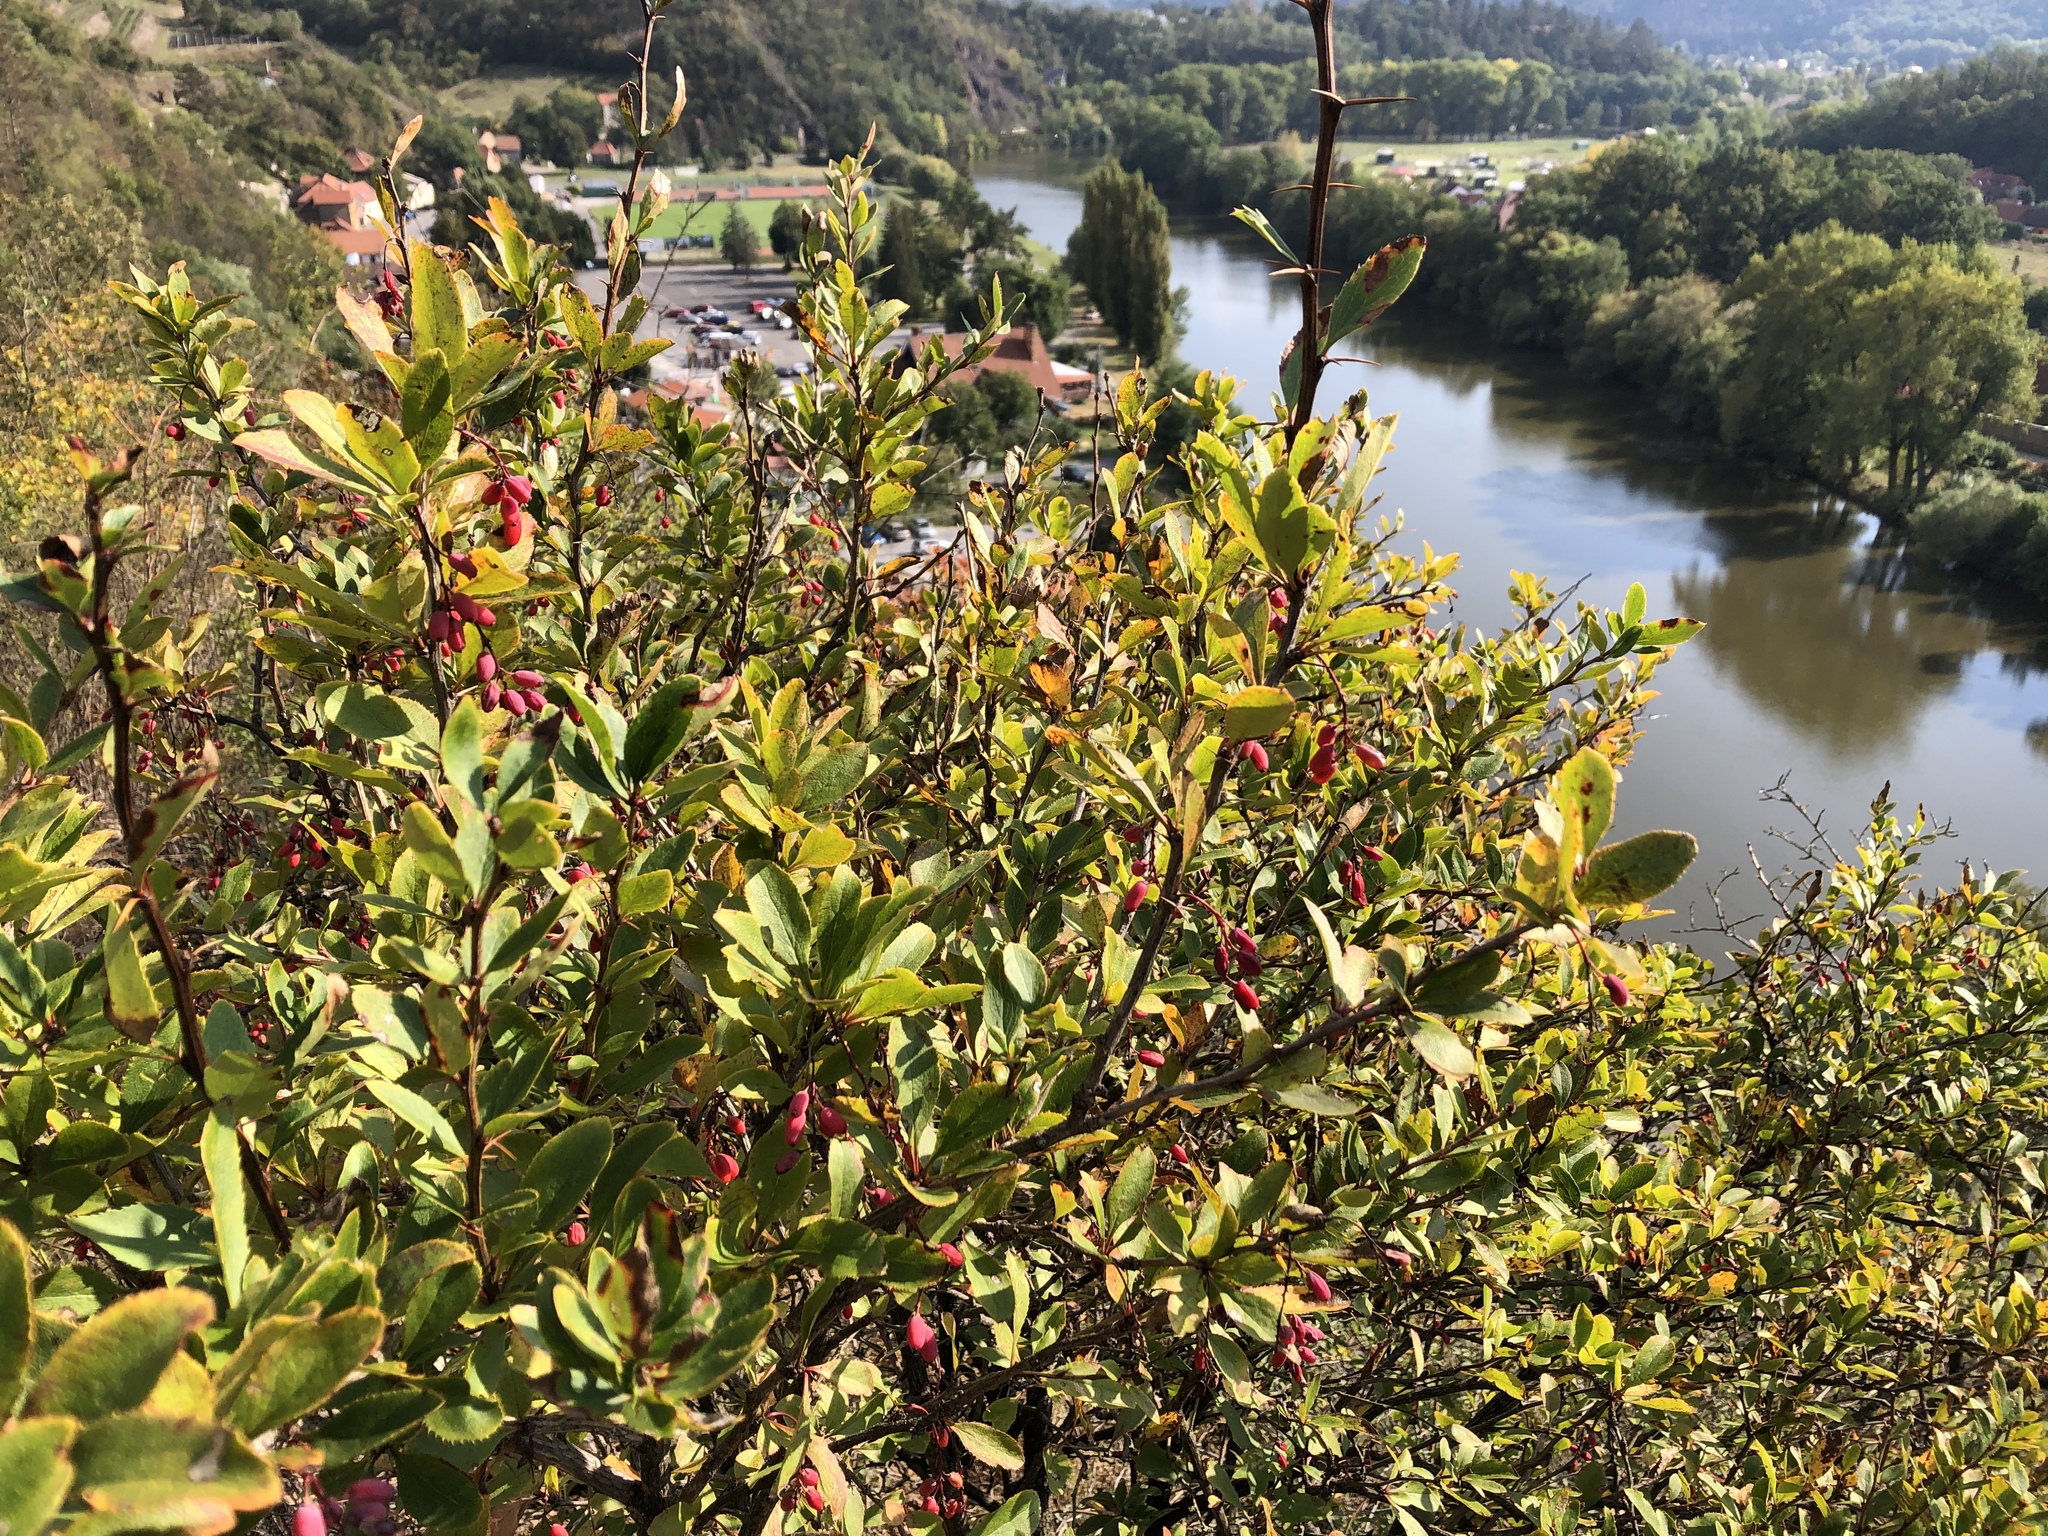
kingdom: Plantae
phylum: Tracheophyta
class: Magnoliopsida
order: Ranunculales
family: Berberidaceae
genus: Berberis
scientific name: Berberis vulgaris
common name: Barberry
